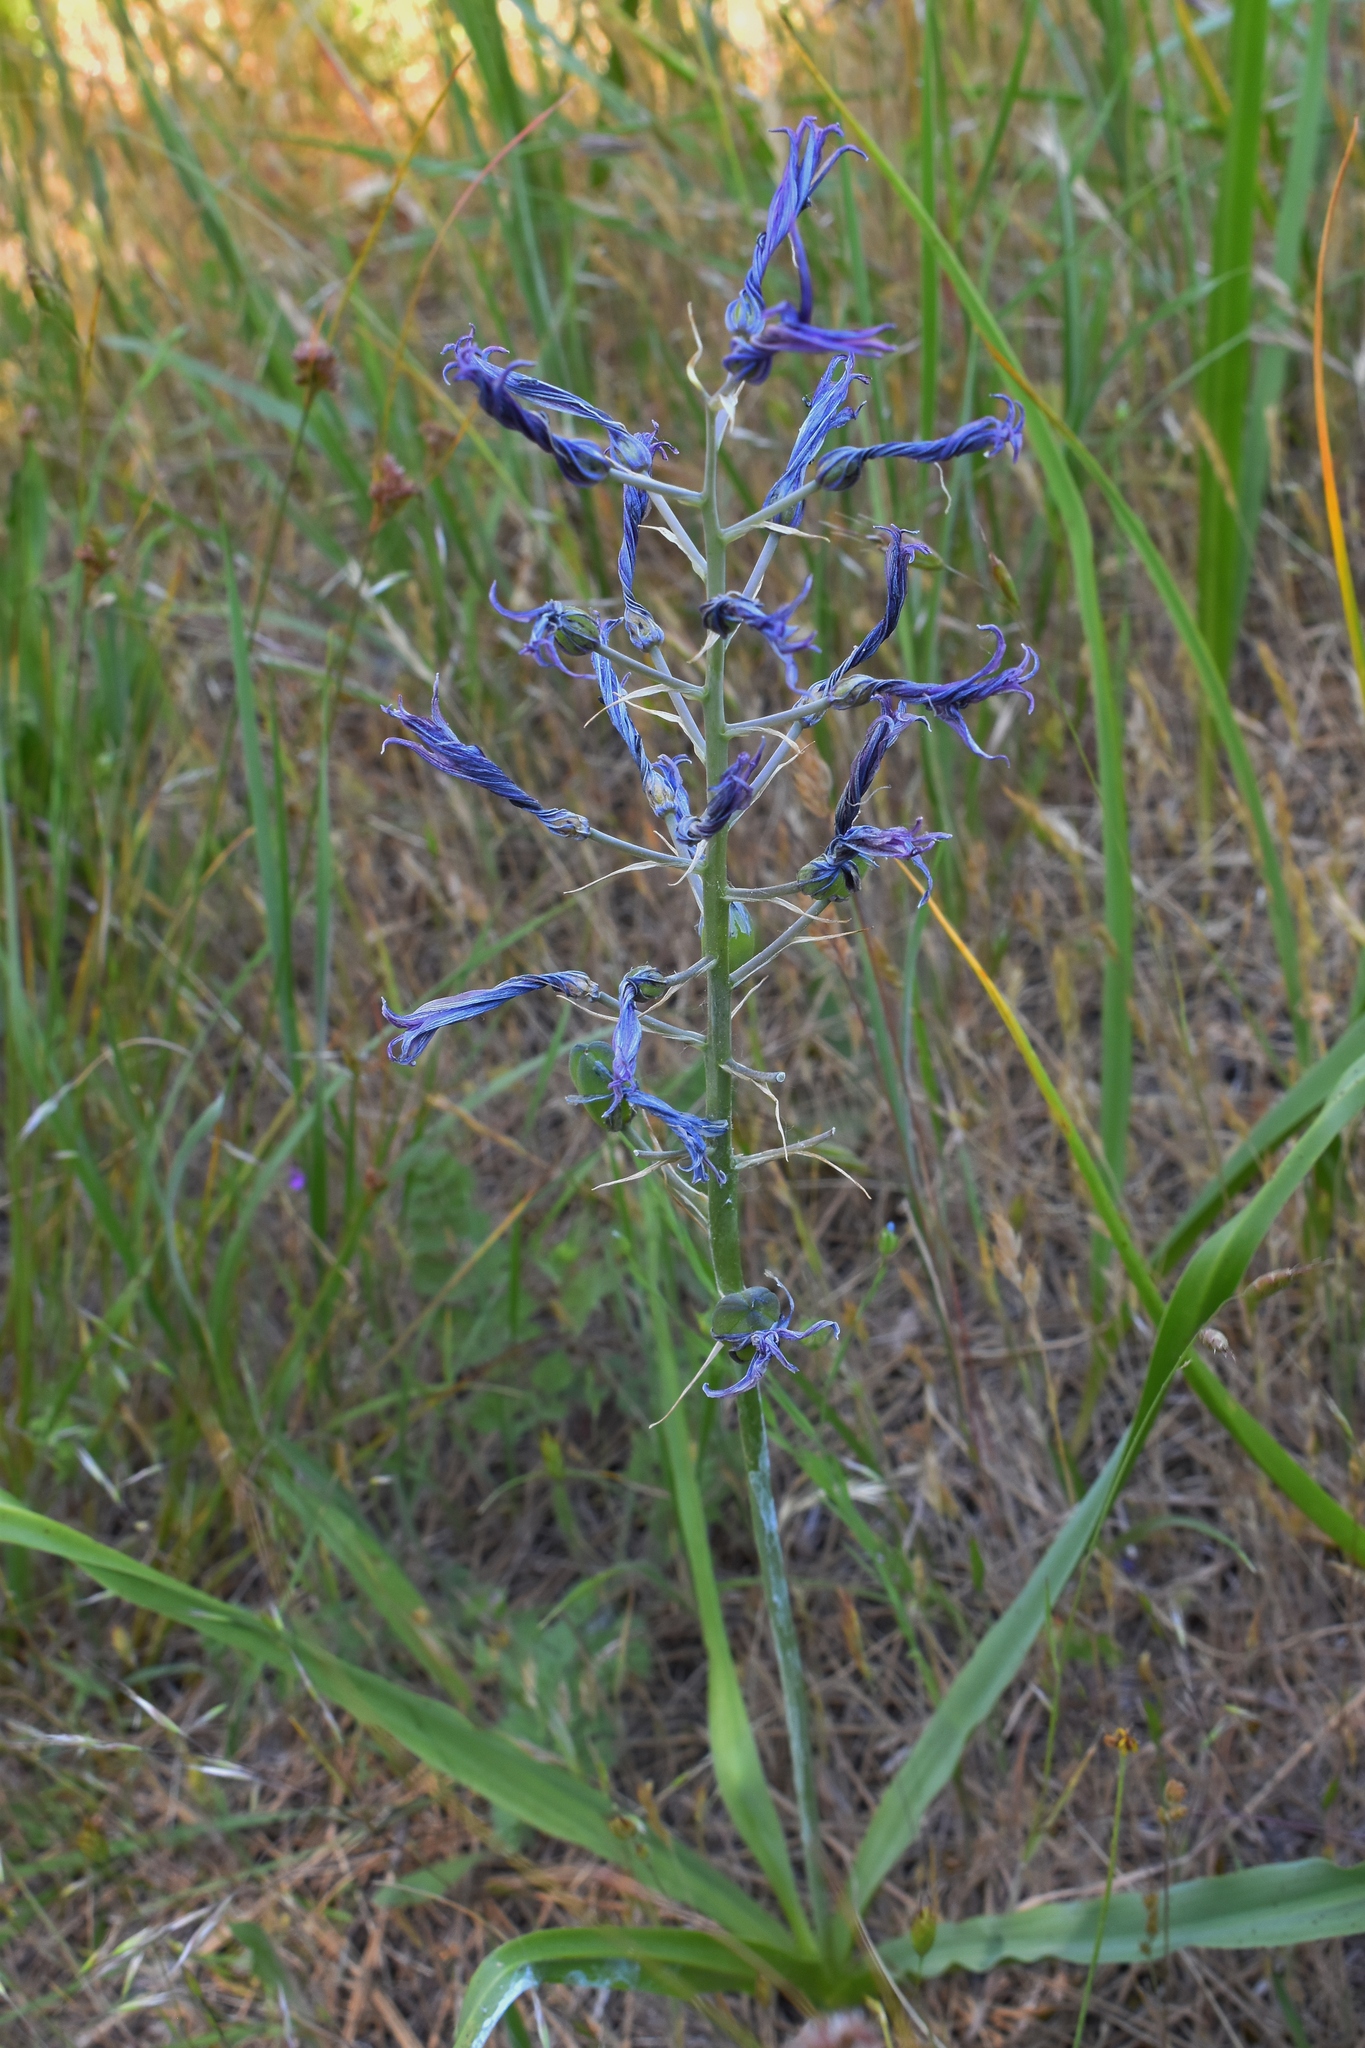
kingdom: Plantae
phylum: Tracheophyta
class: Liliopsida
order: Asparagales
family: Asparagaceae
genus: Camassia
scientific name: Camassia leichtlinii
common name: Leichtlin's camas
